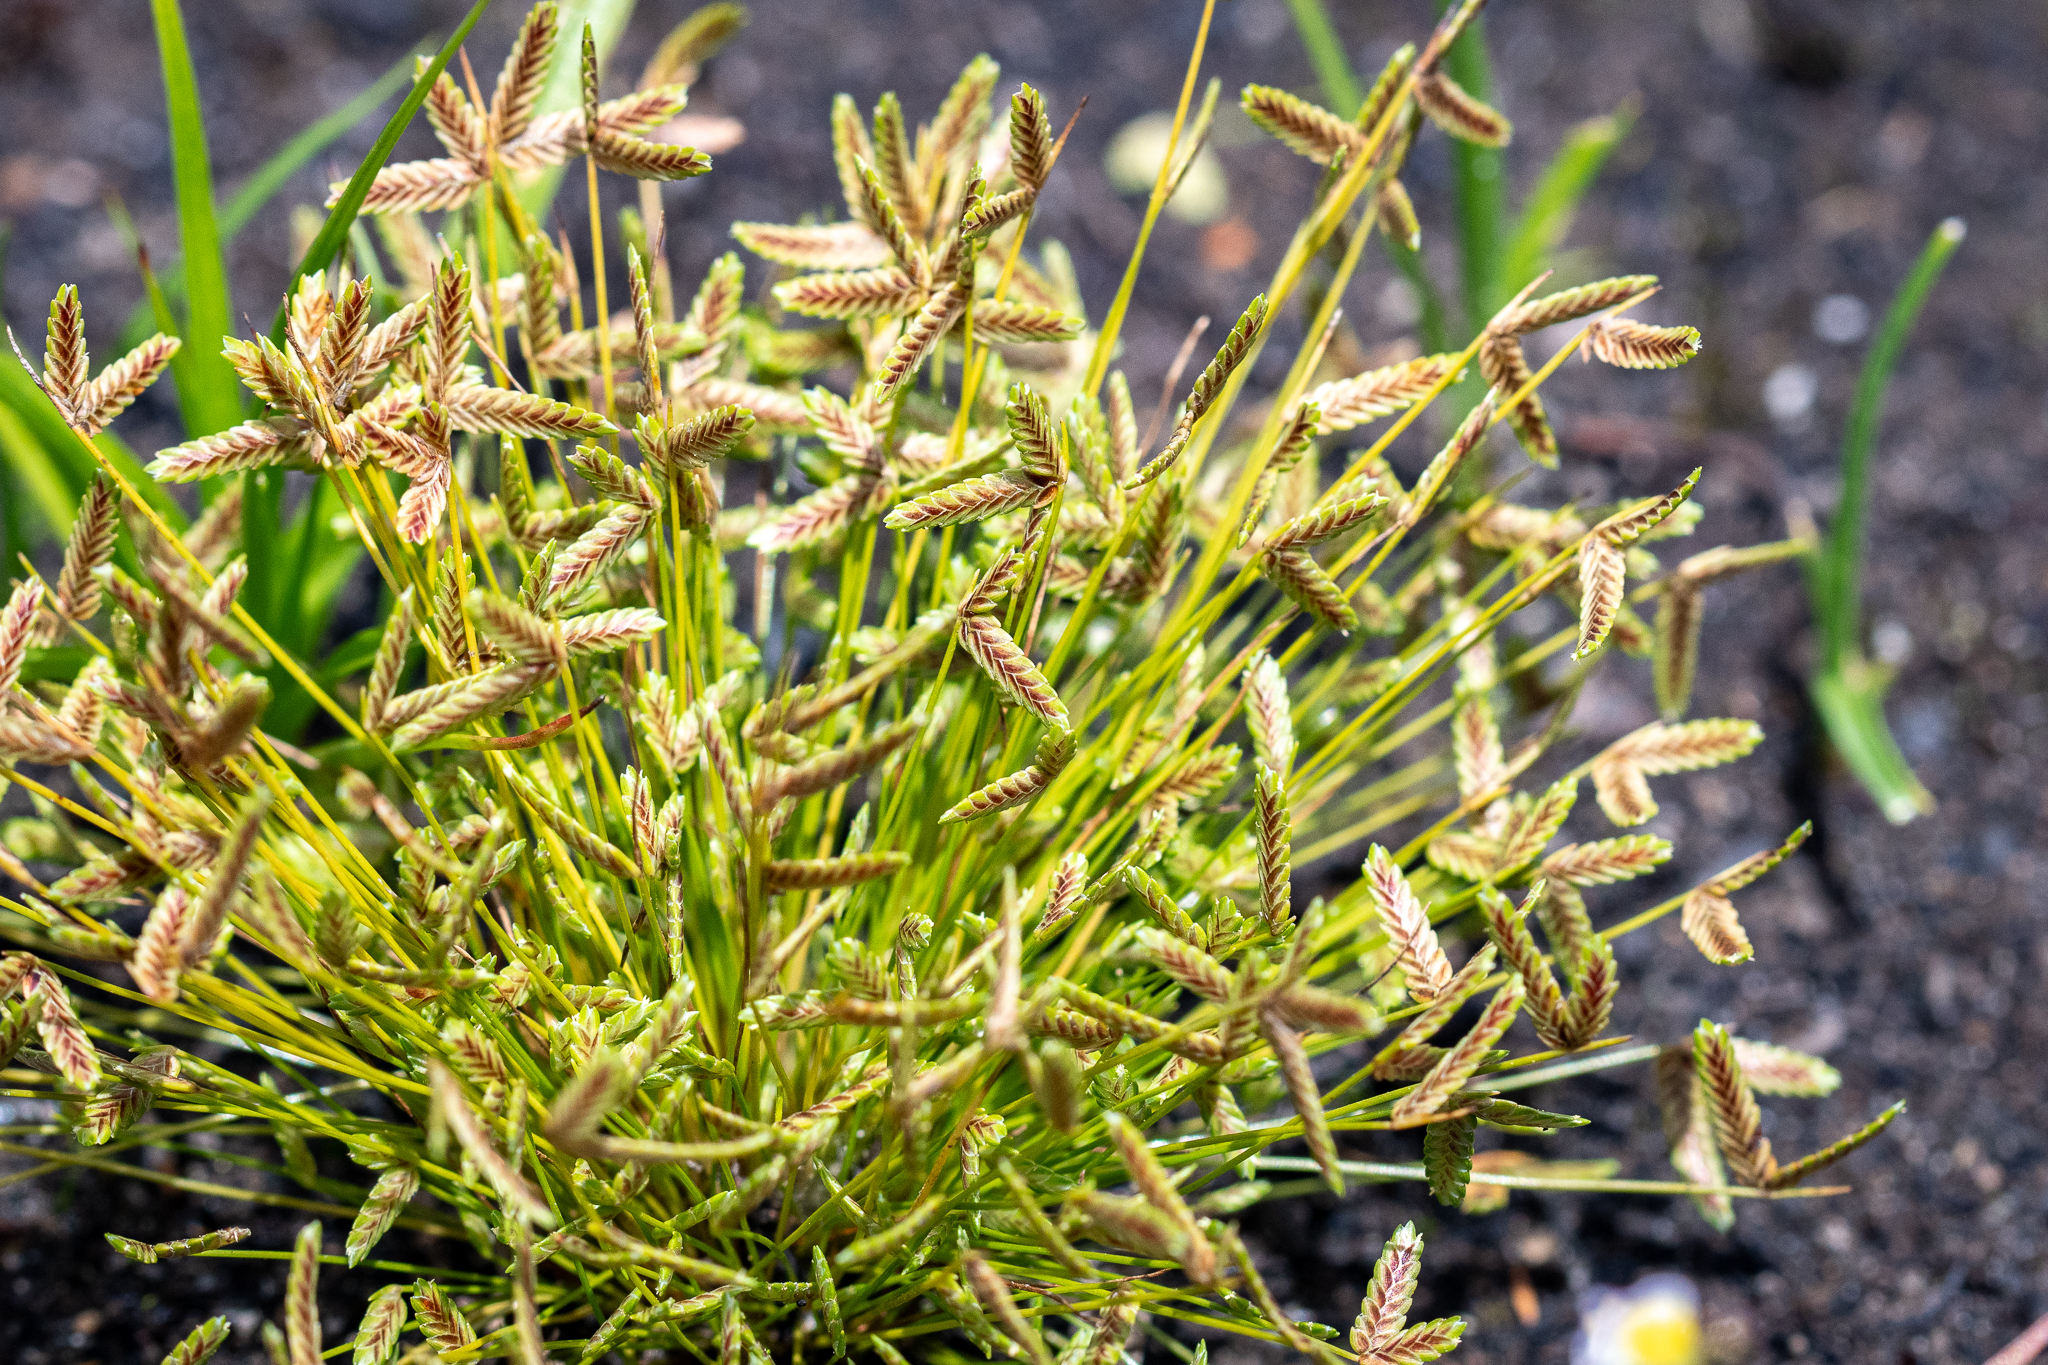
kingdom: Plantae
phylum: Tracheophyta
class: Liliopsida
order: Poales
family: Cyperaceae
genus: Isolepis
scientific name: Isolepis levynsiana
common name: Sedge
